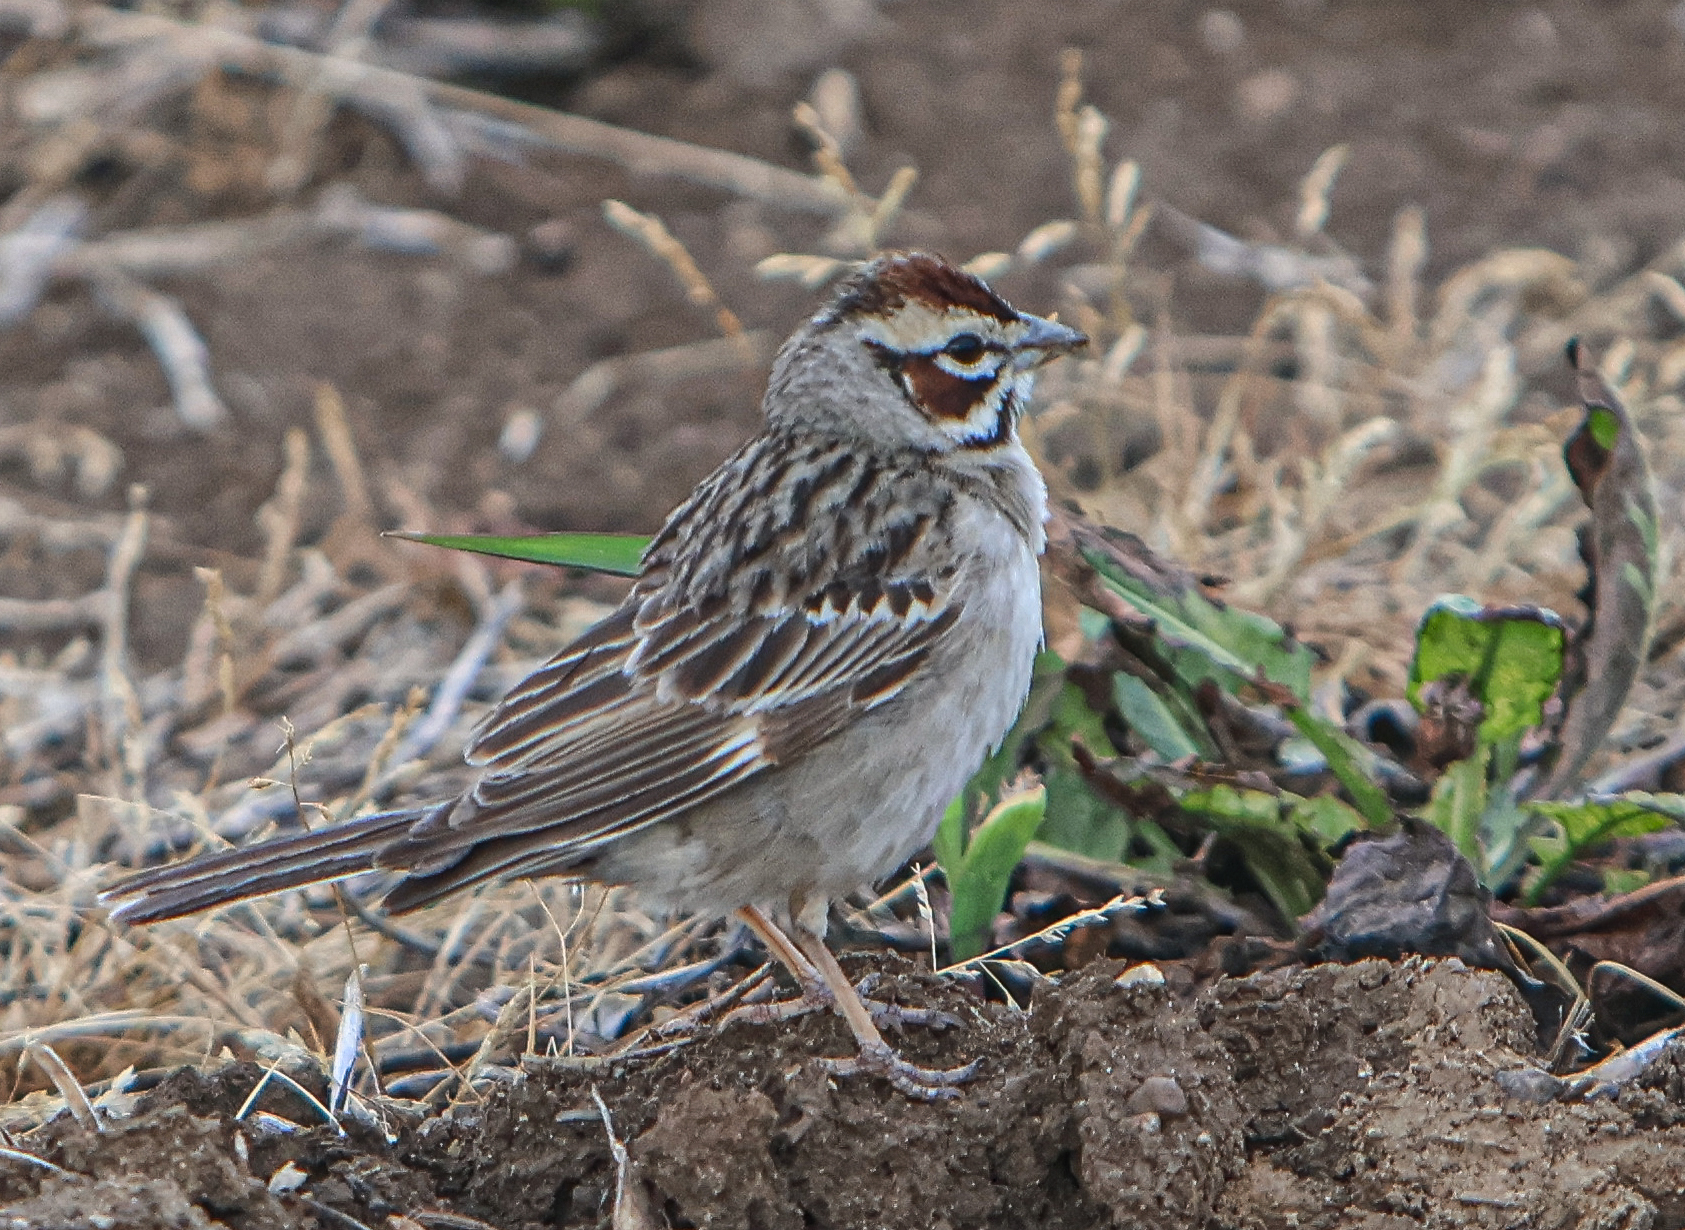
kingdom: Animalia
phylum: Chordata
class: Aves
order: Passeriformes
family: Passerellidae
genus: Chondestes
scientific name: Chondestes grammacus
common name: Lark sparrow
